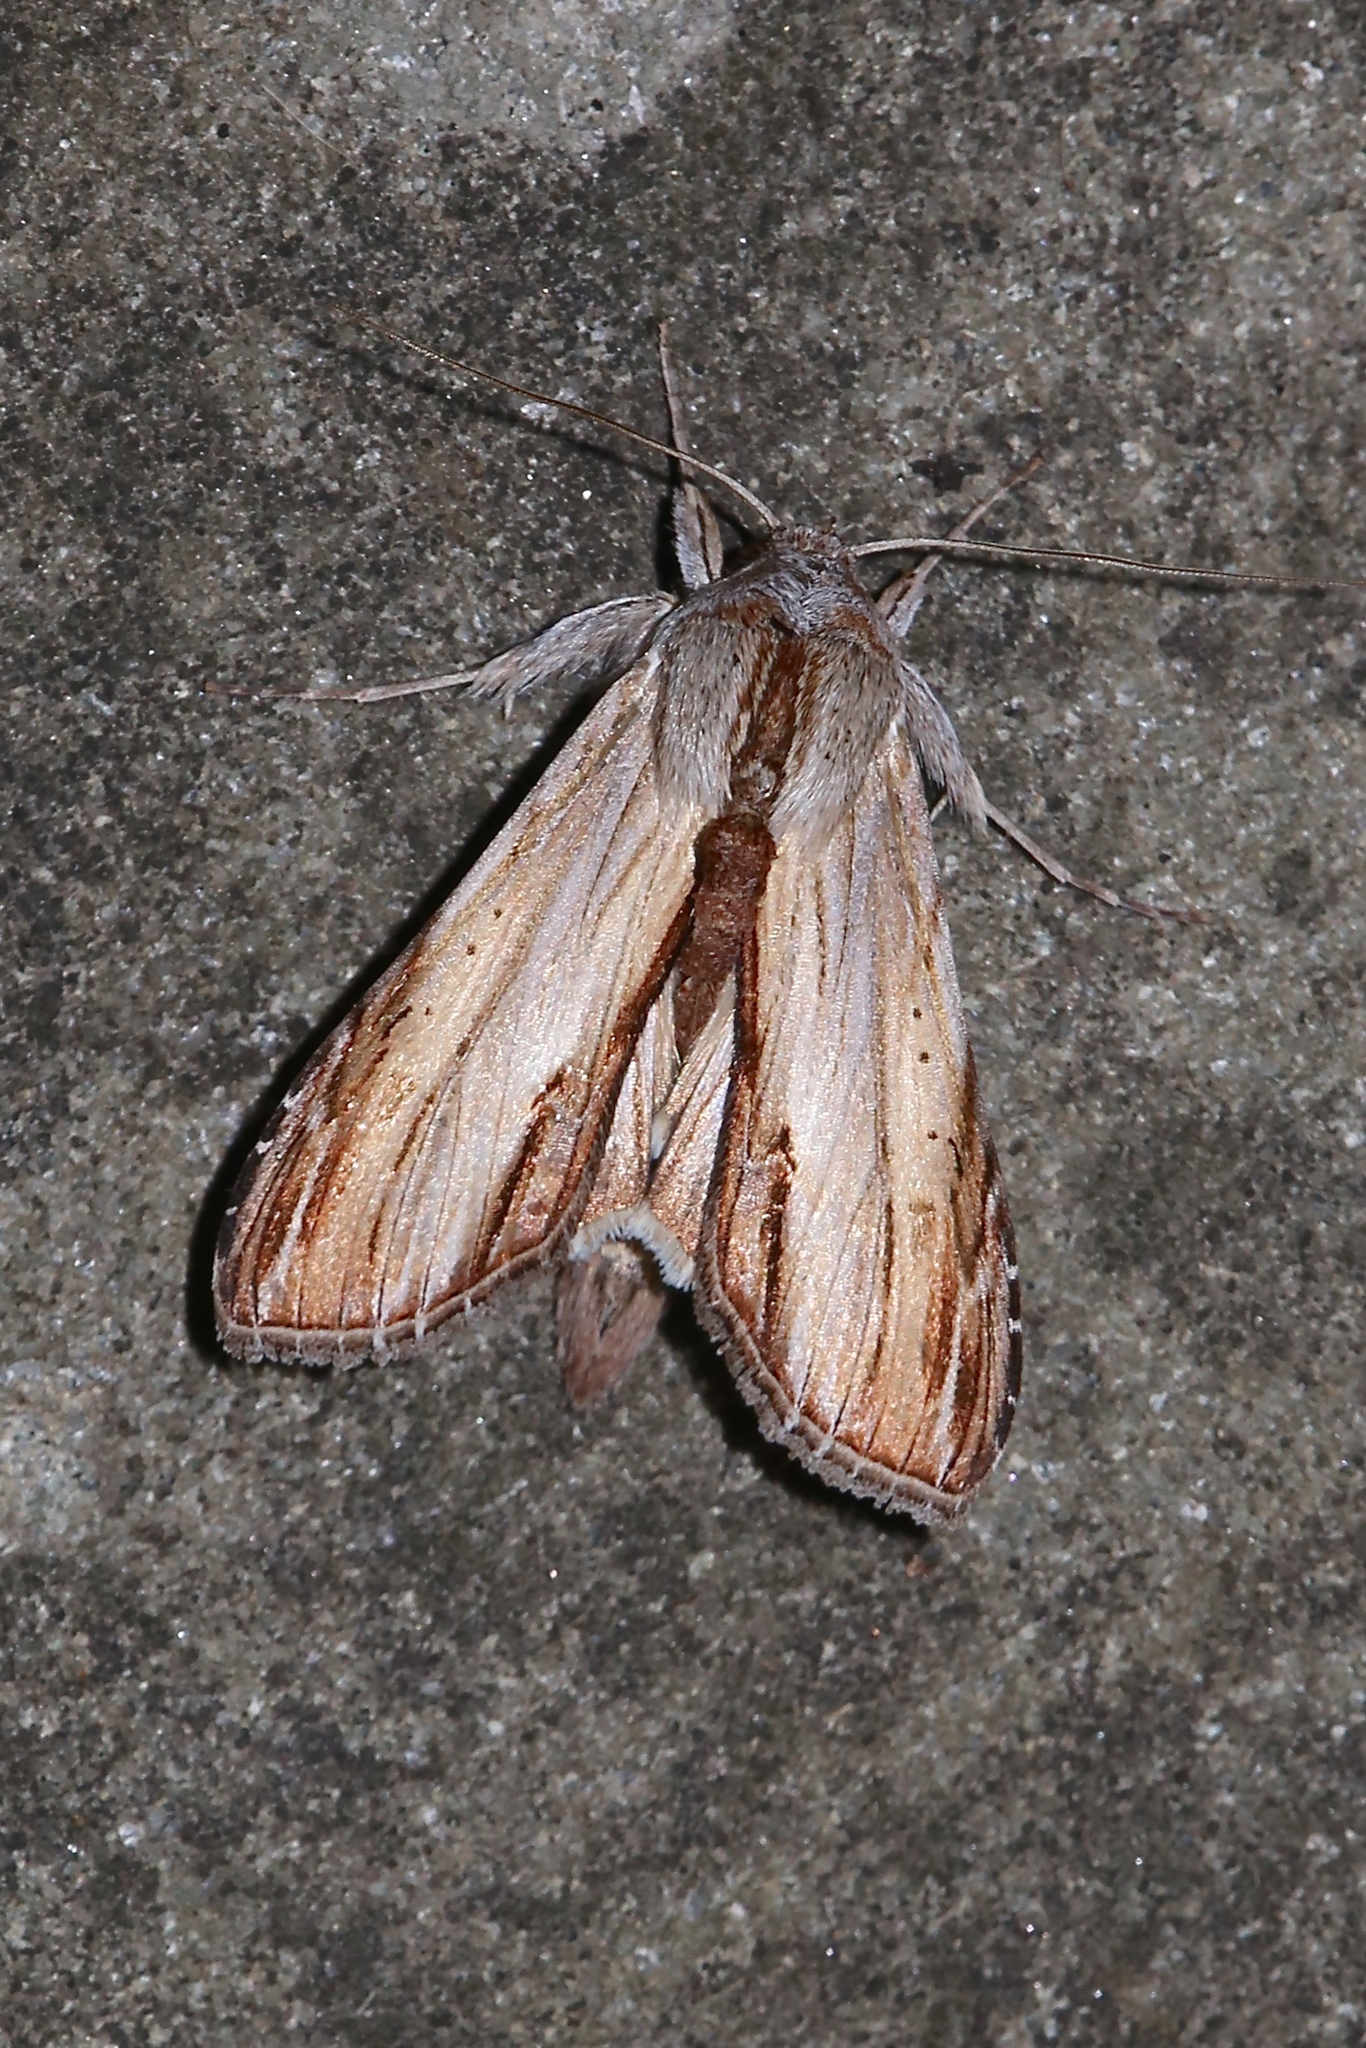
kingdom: Animalia
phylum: Arthropoda
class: Insecta
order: Lepidoptera
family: Noctuidae
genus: Cucullia
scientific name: Cucullia convexipennis
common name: Brown-hooded owlet
